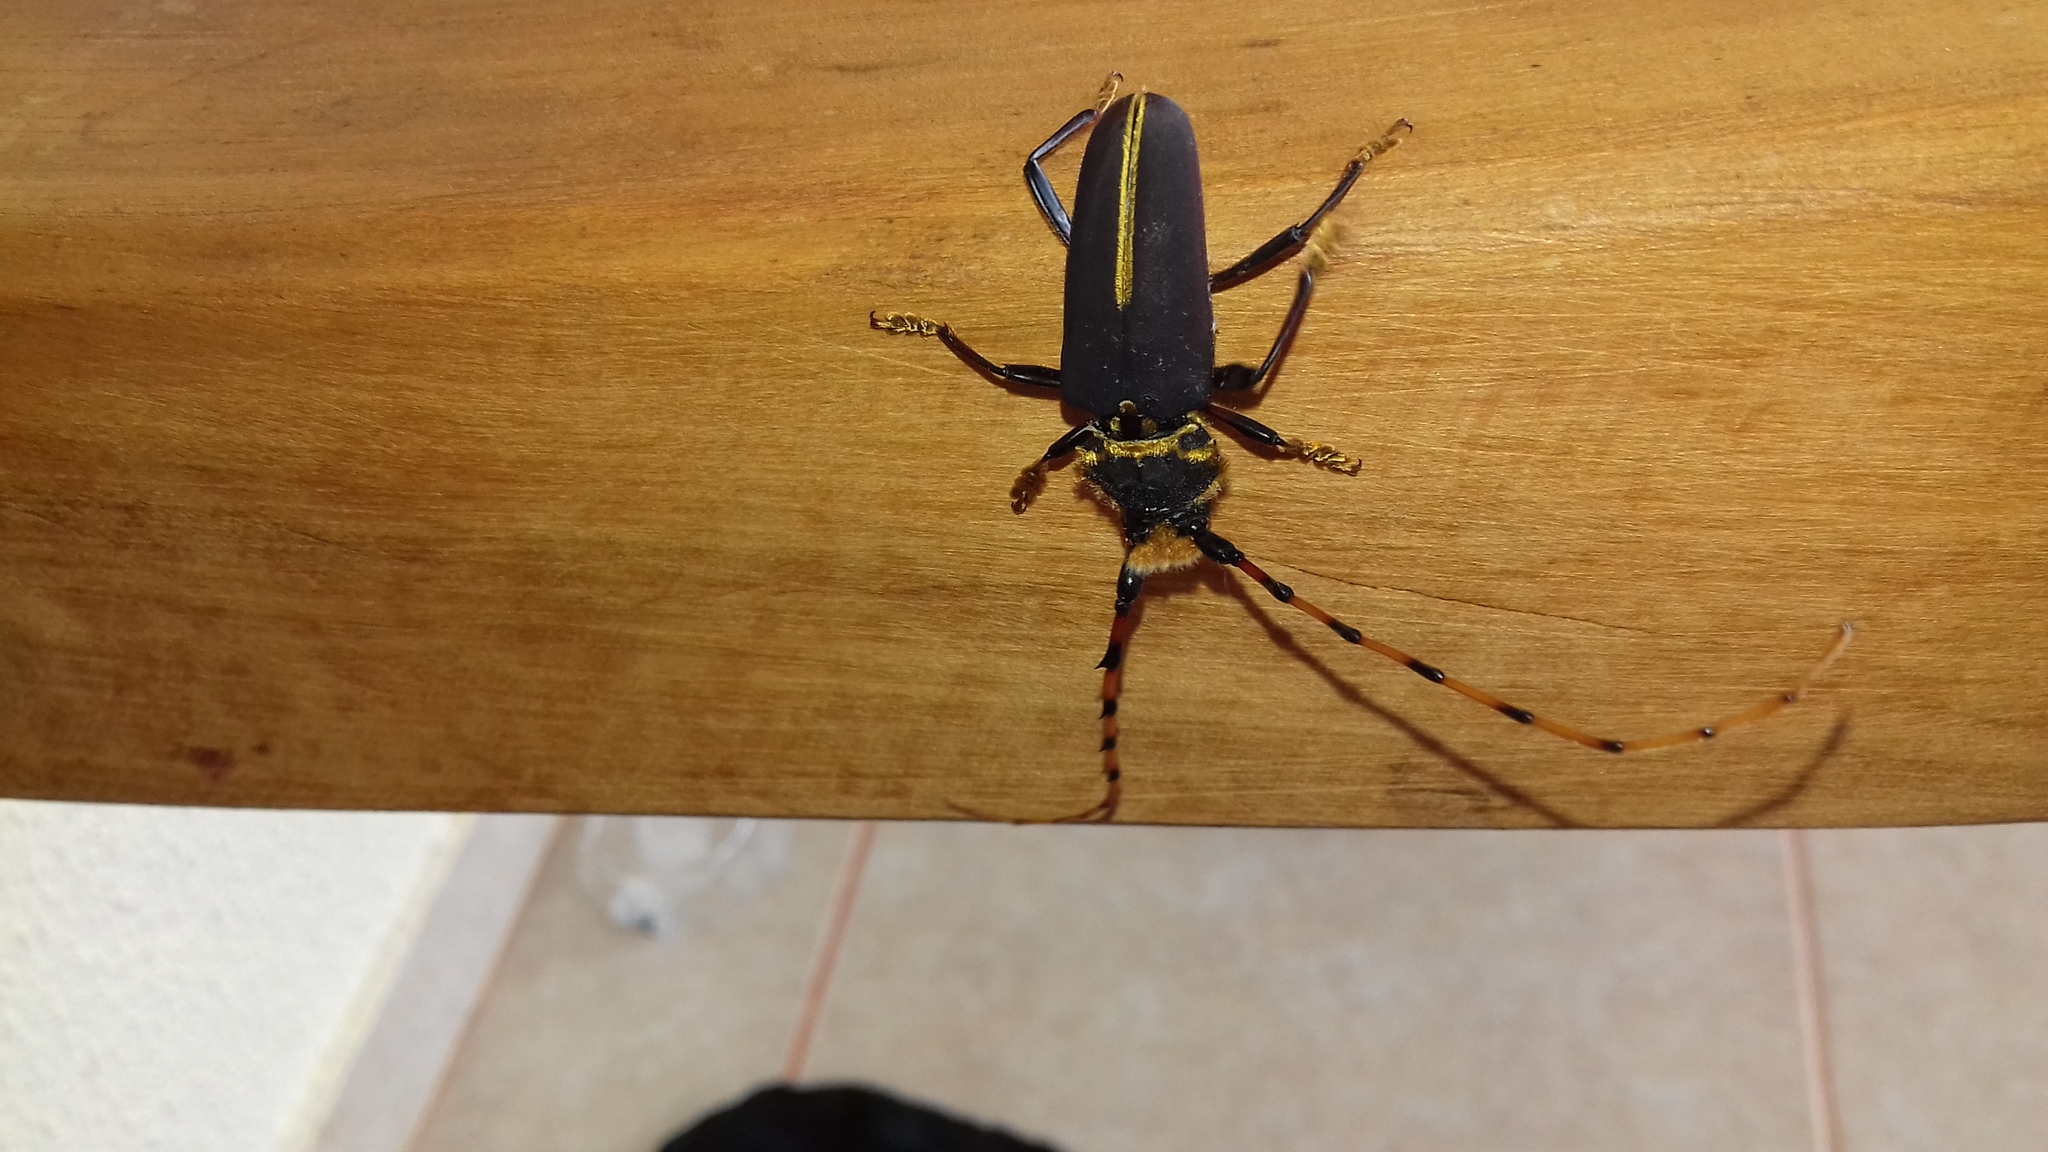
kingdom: Animalia
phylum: Arthropoda
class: Insecta
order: Coleoptera
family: Cerambycidae
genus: Dorcacerus
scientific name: Dorcacerus barbatus
